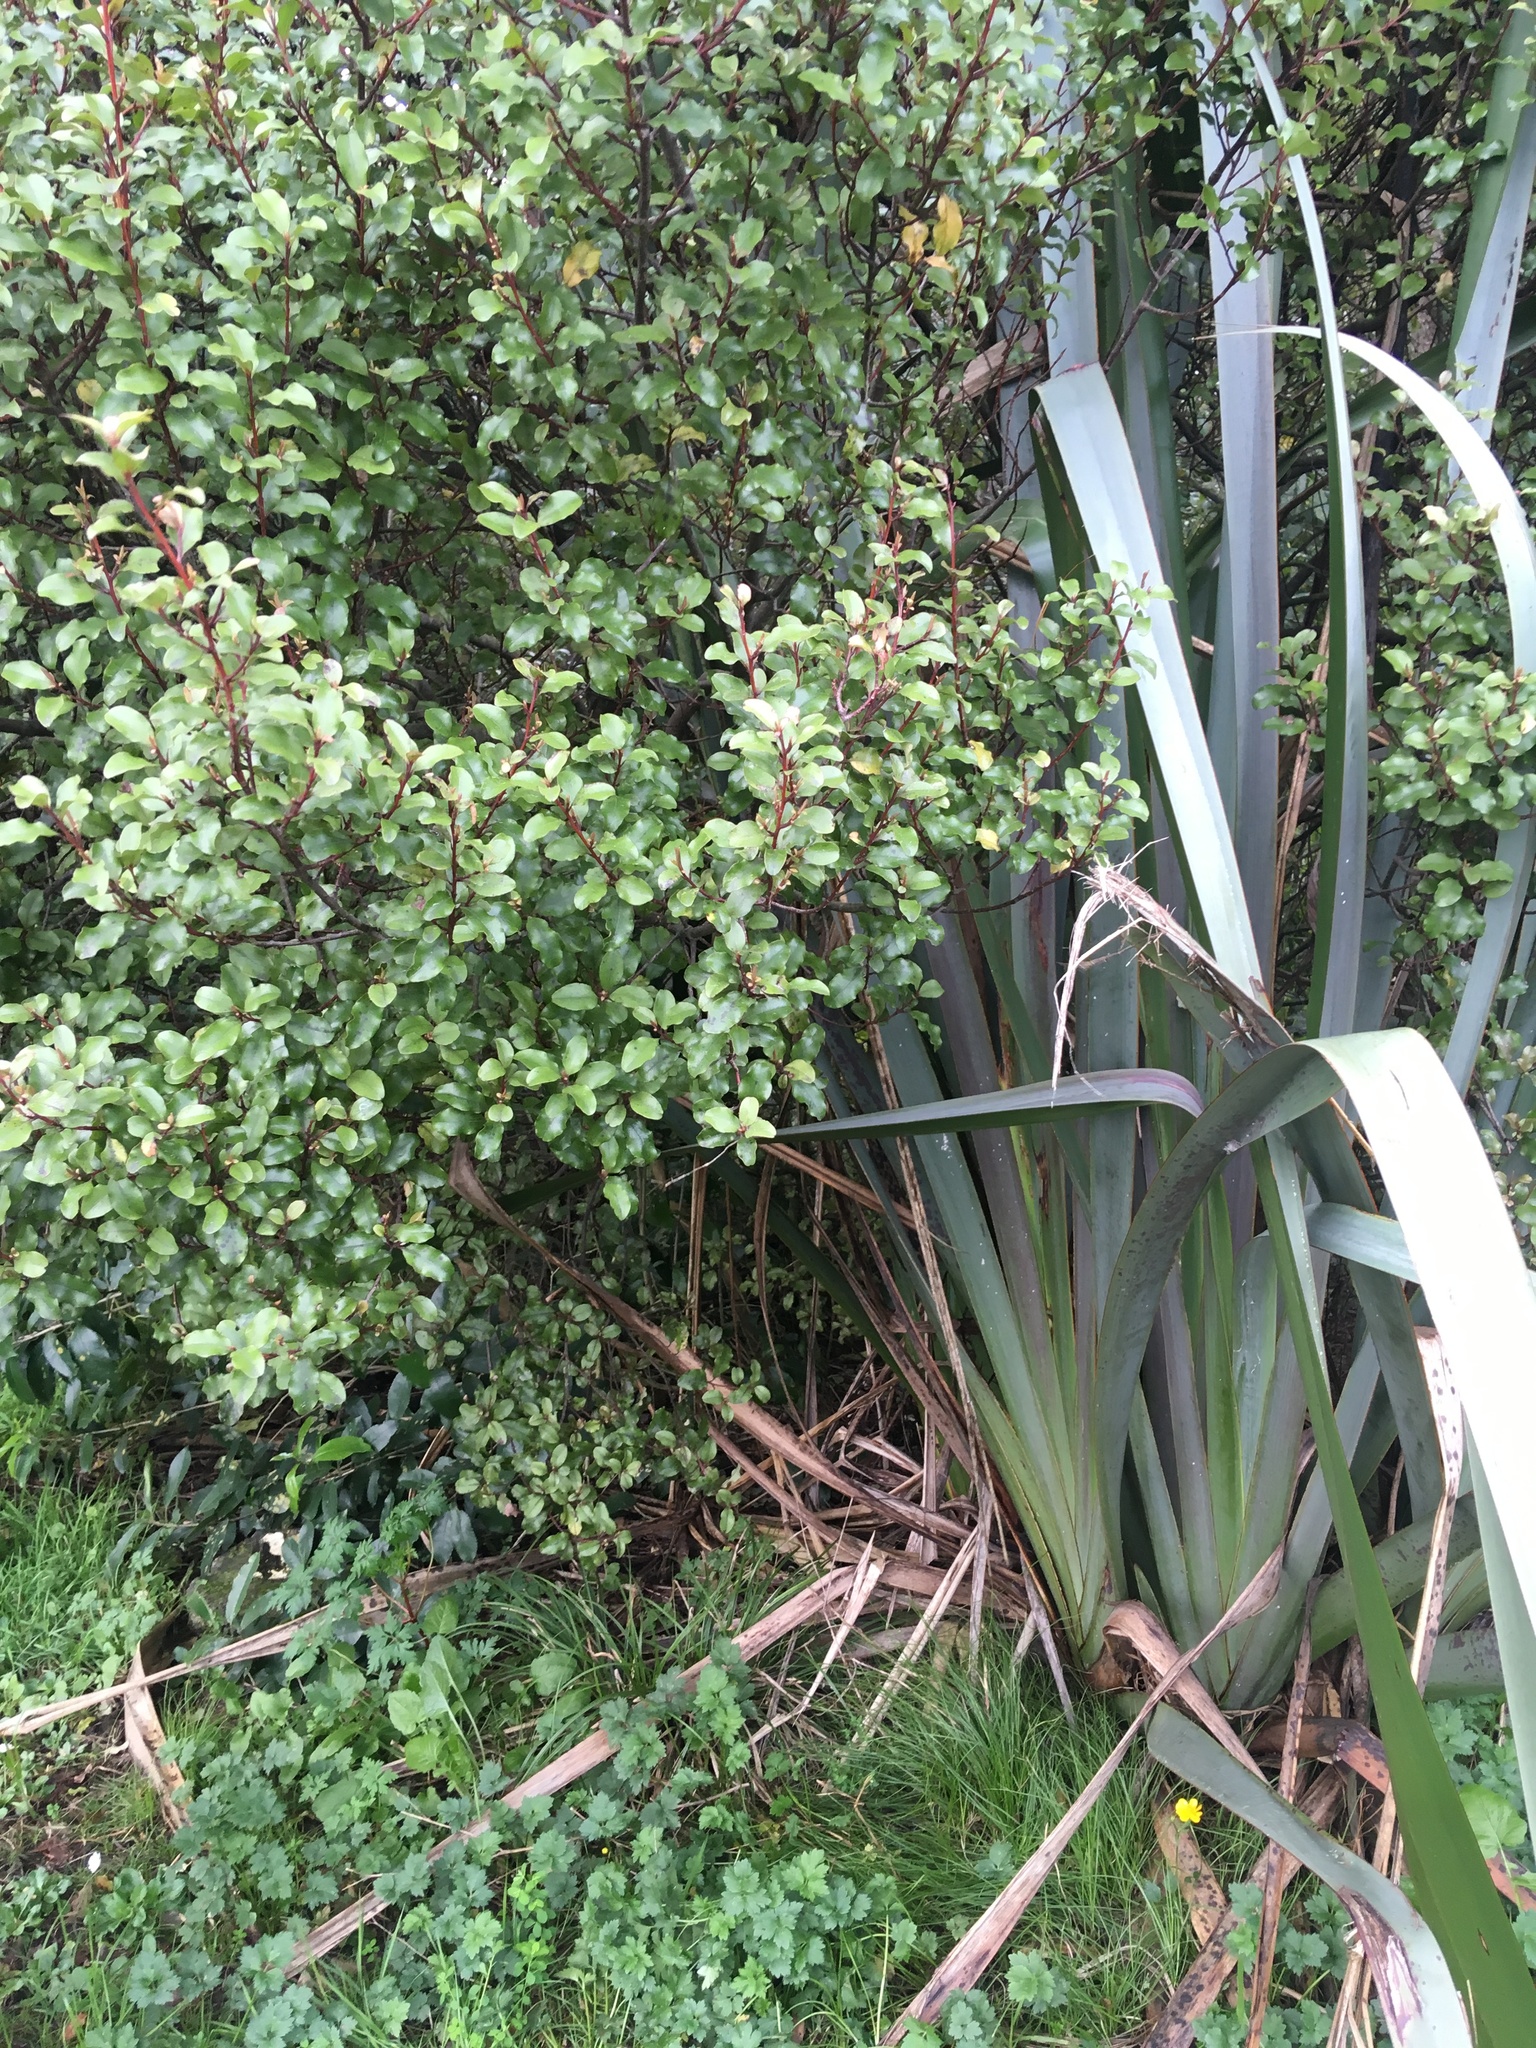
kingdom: Plantae
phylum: Tracheophyta
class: Magnoliopsida
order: Ericales
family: Primulaceae
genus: Myrsine
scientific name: Myrsine australis
